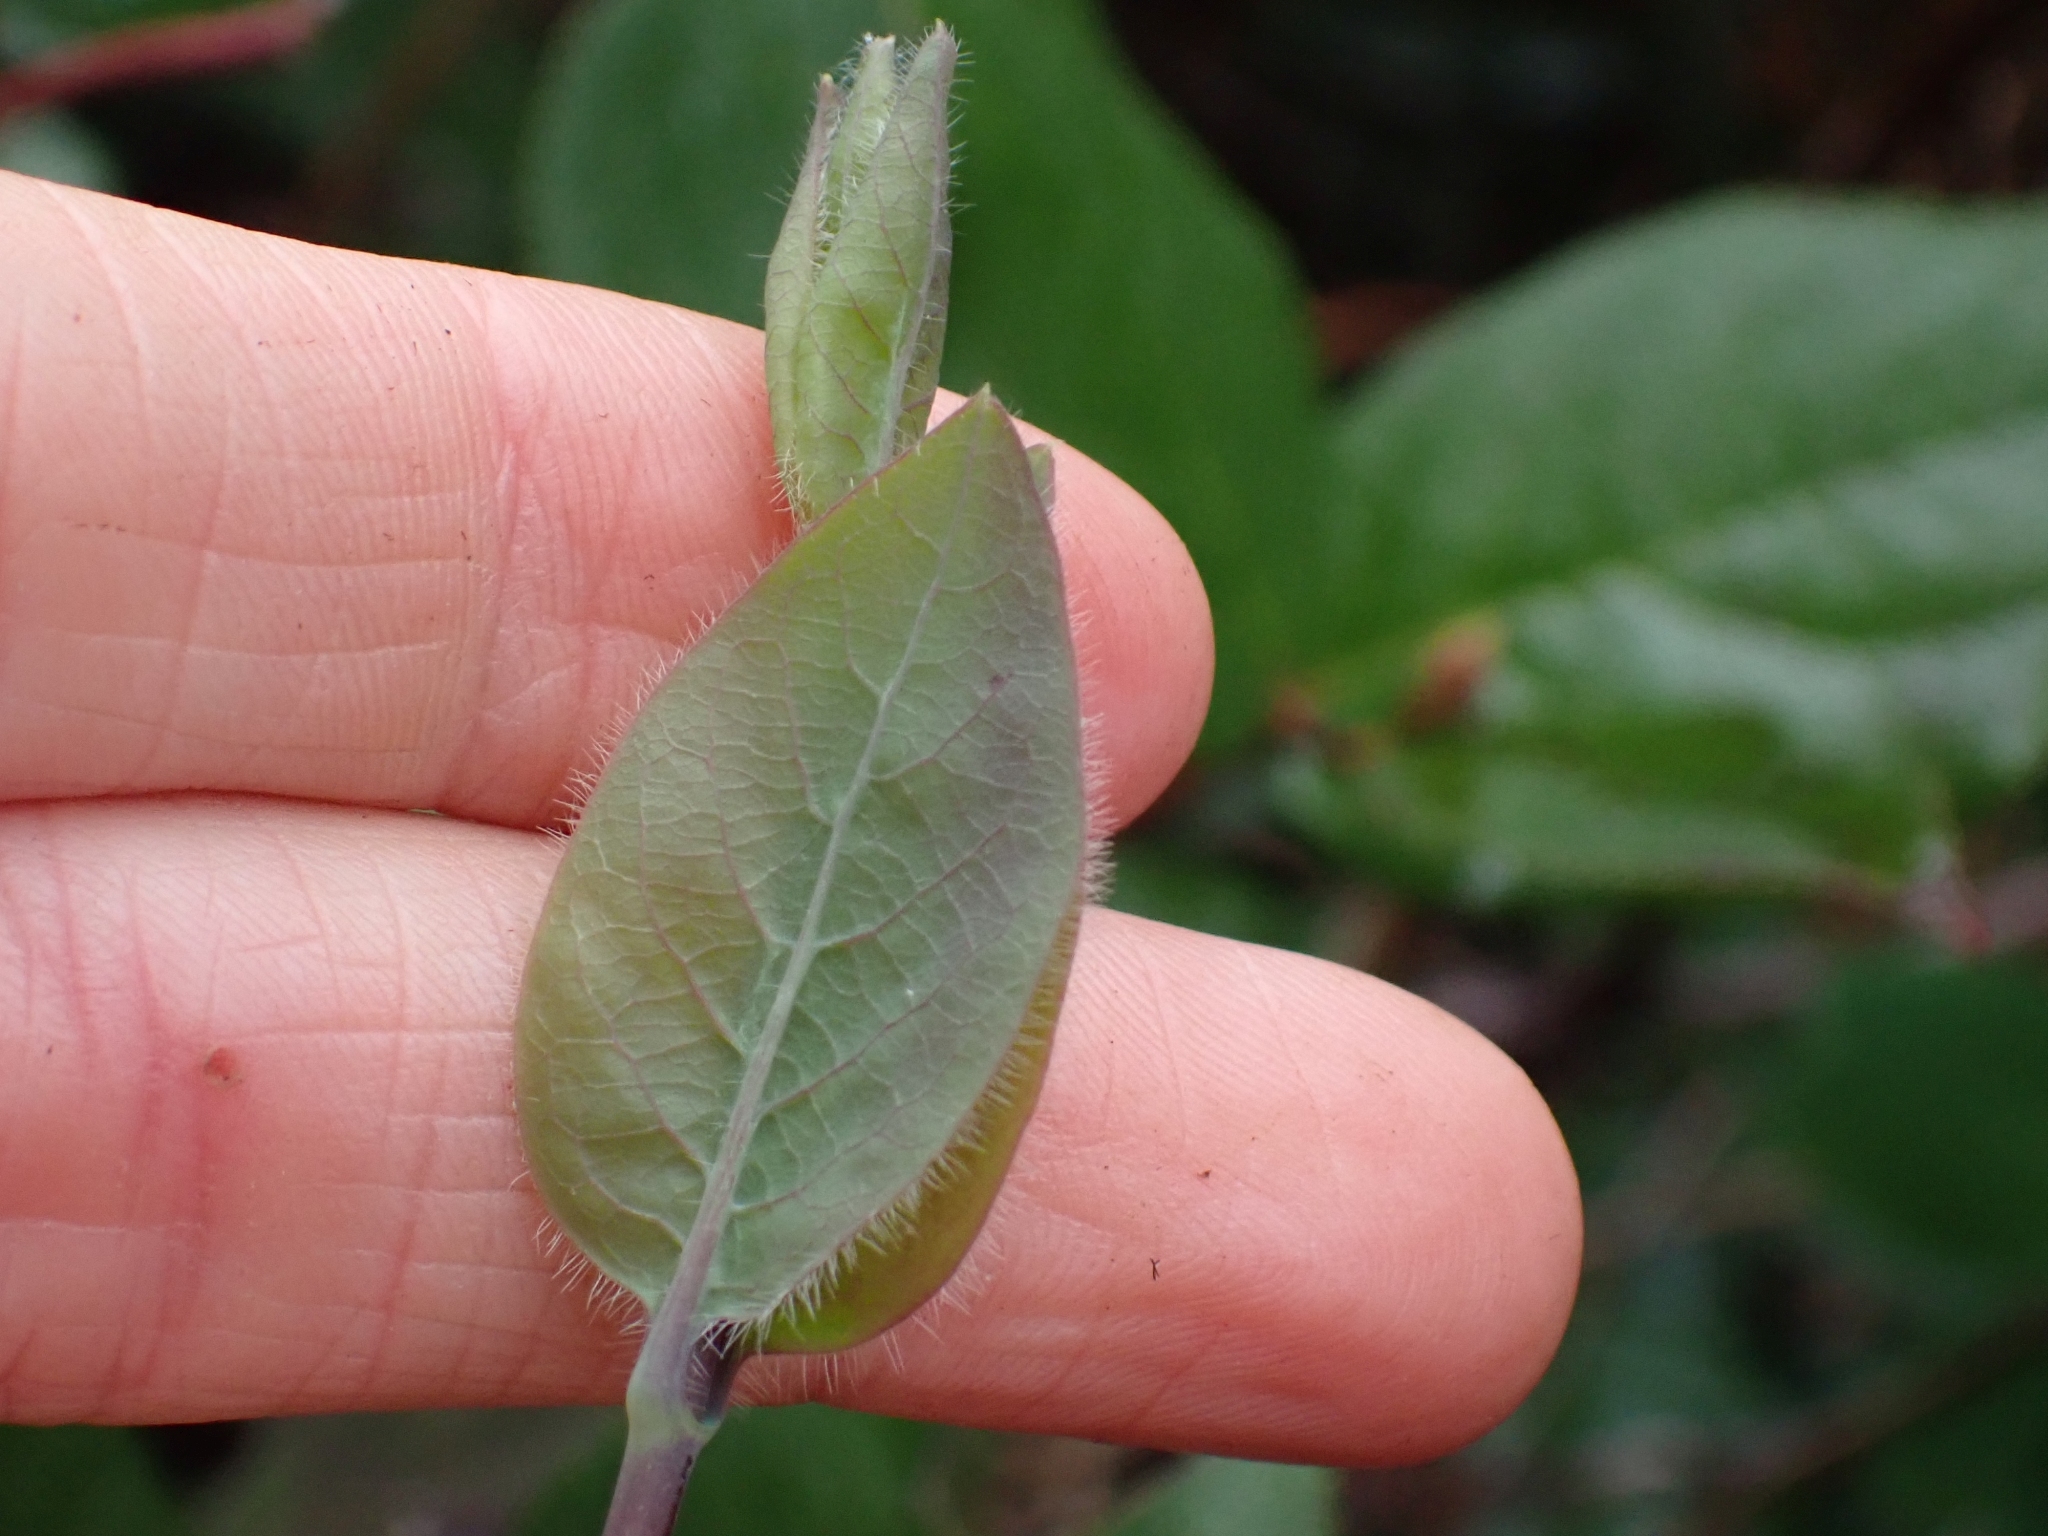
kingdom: Plantae
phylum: Tracheophyta
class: Magnoliopsida
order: Dipsacales
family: Caprifoliaceae
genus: Lonicera
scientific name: Lonicera ciliosa
